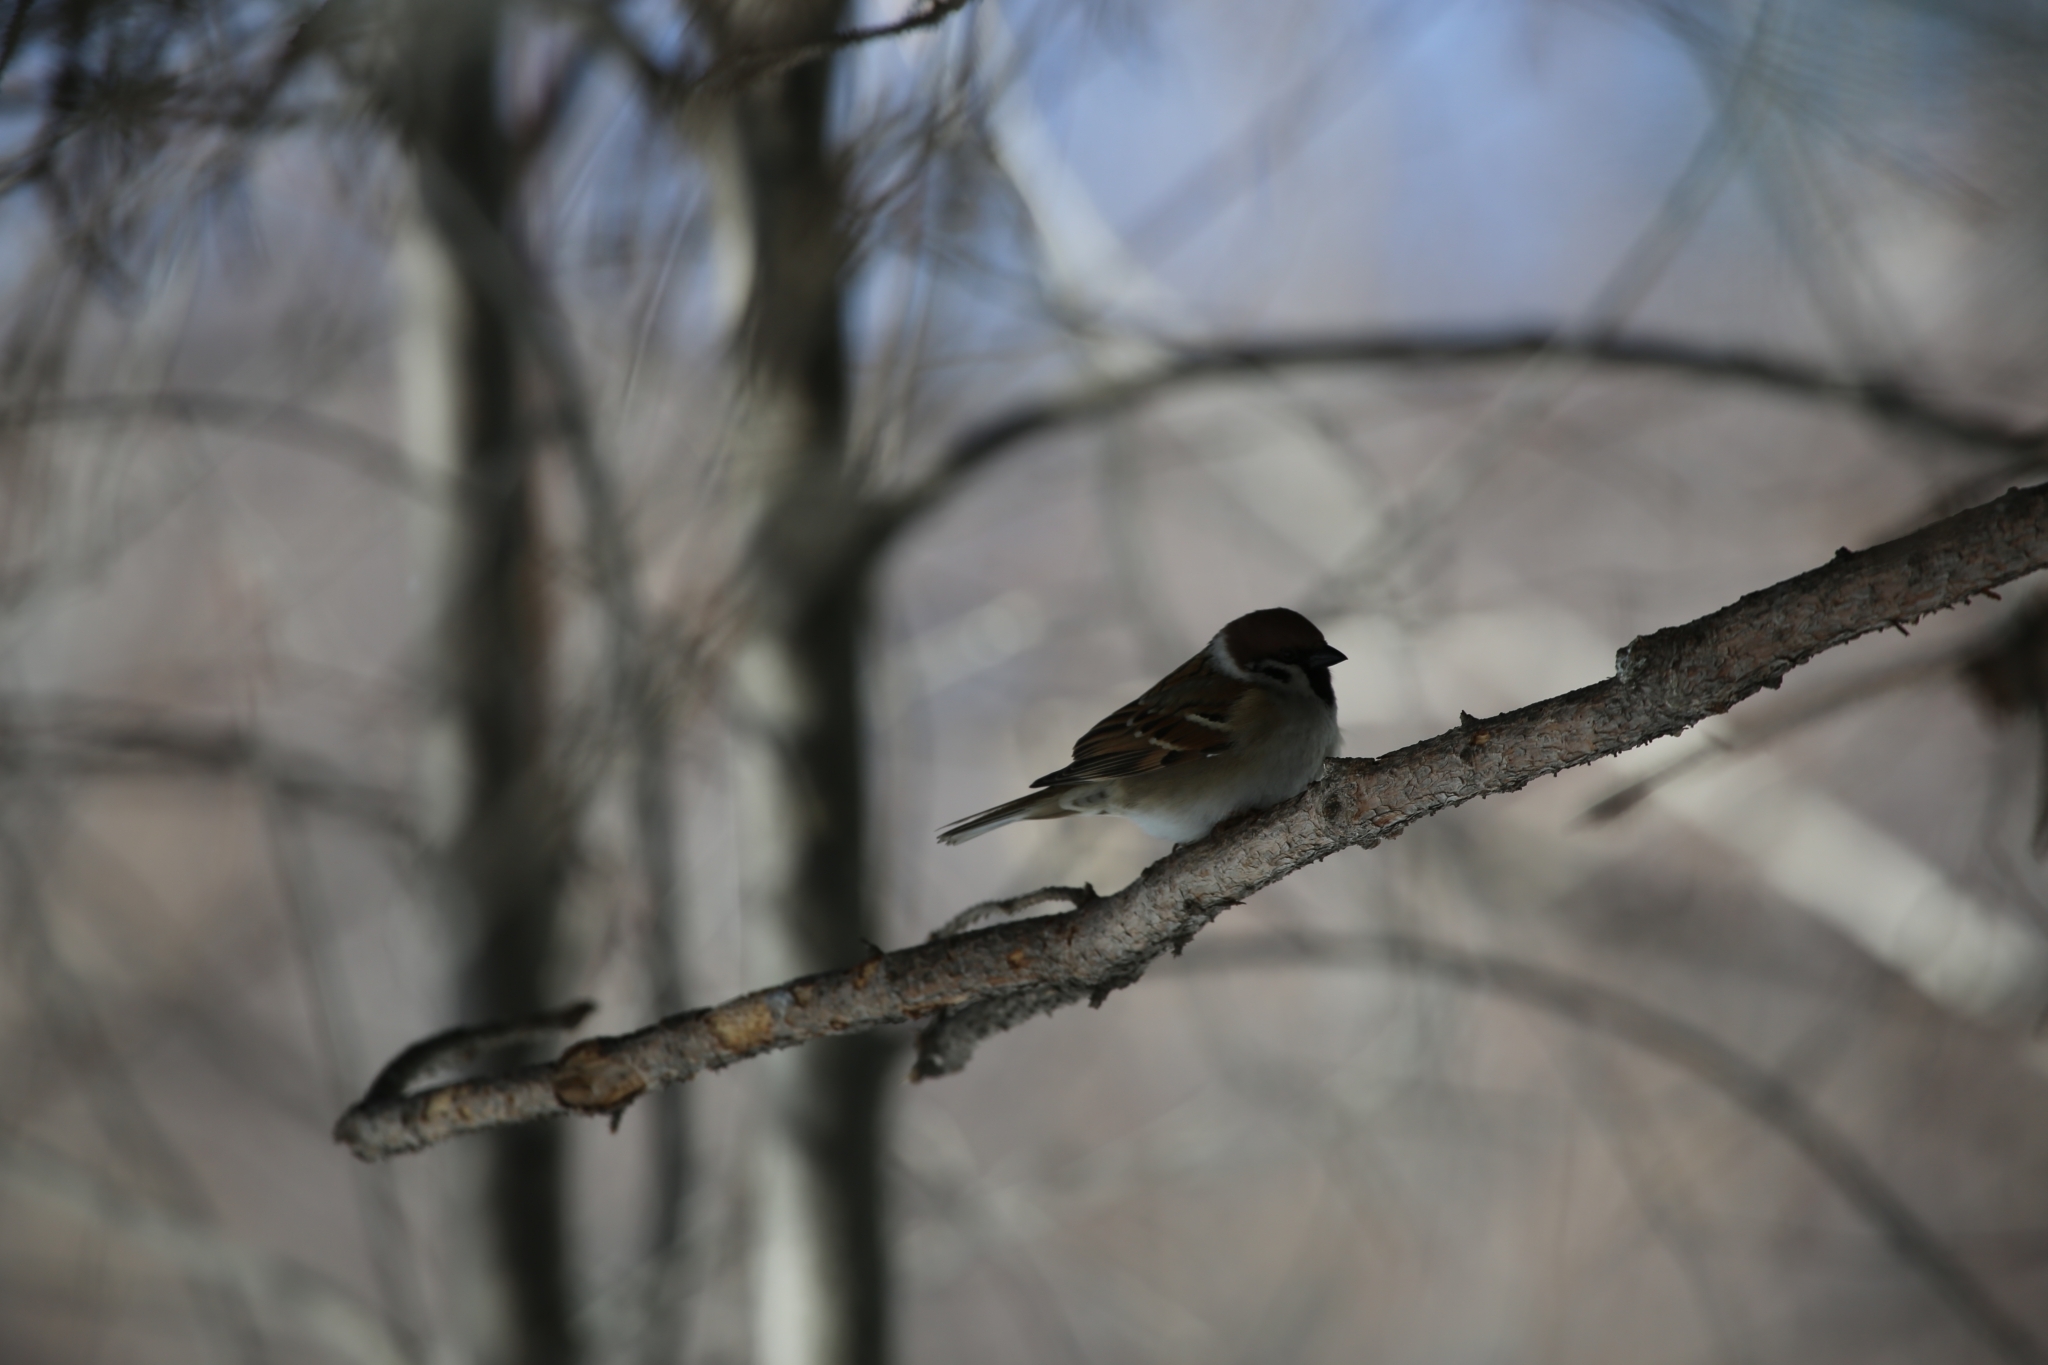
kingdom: Animalia
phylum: Chordata
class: Aves
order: Passeriformes
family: Passeridae
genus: Passer
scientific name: Passer montanus
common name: Eurasian tree sparrow
